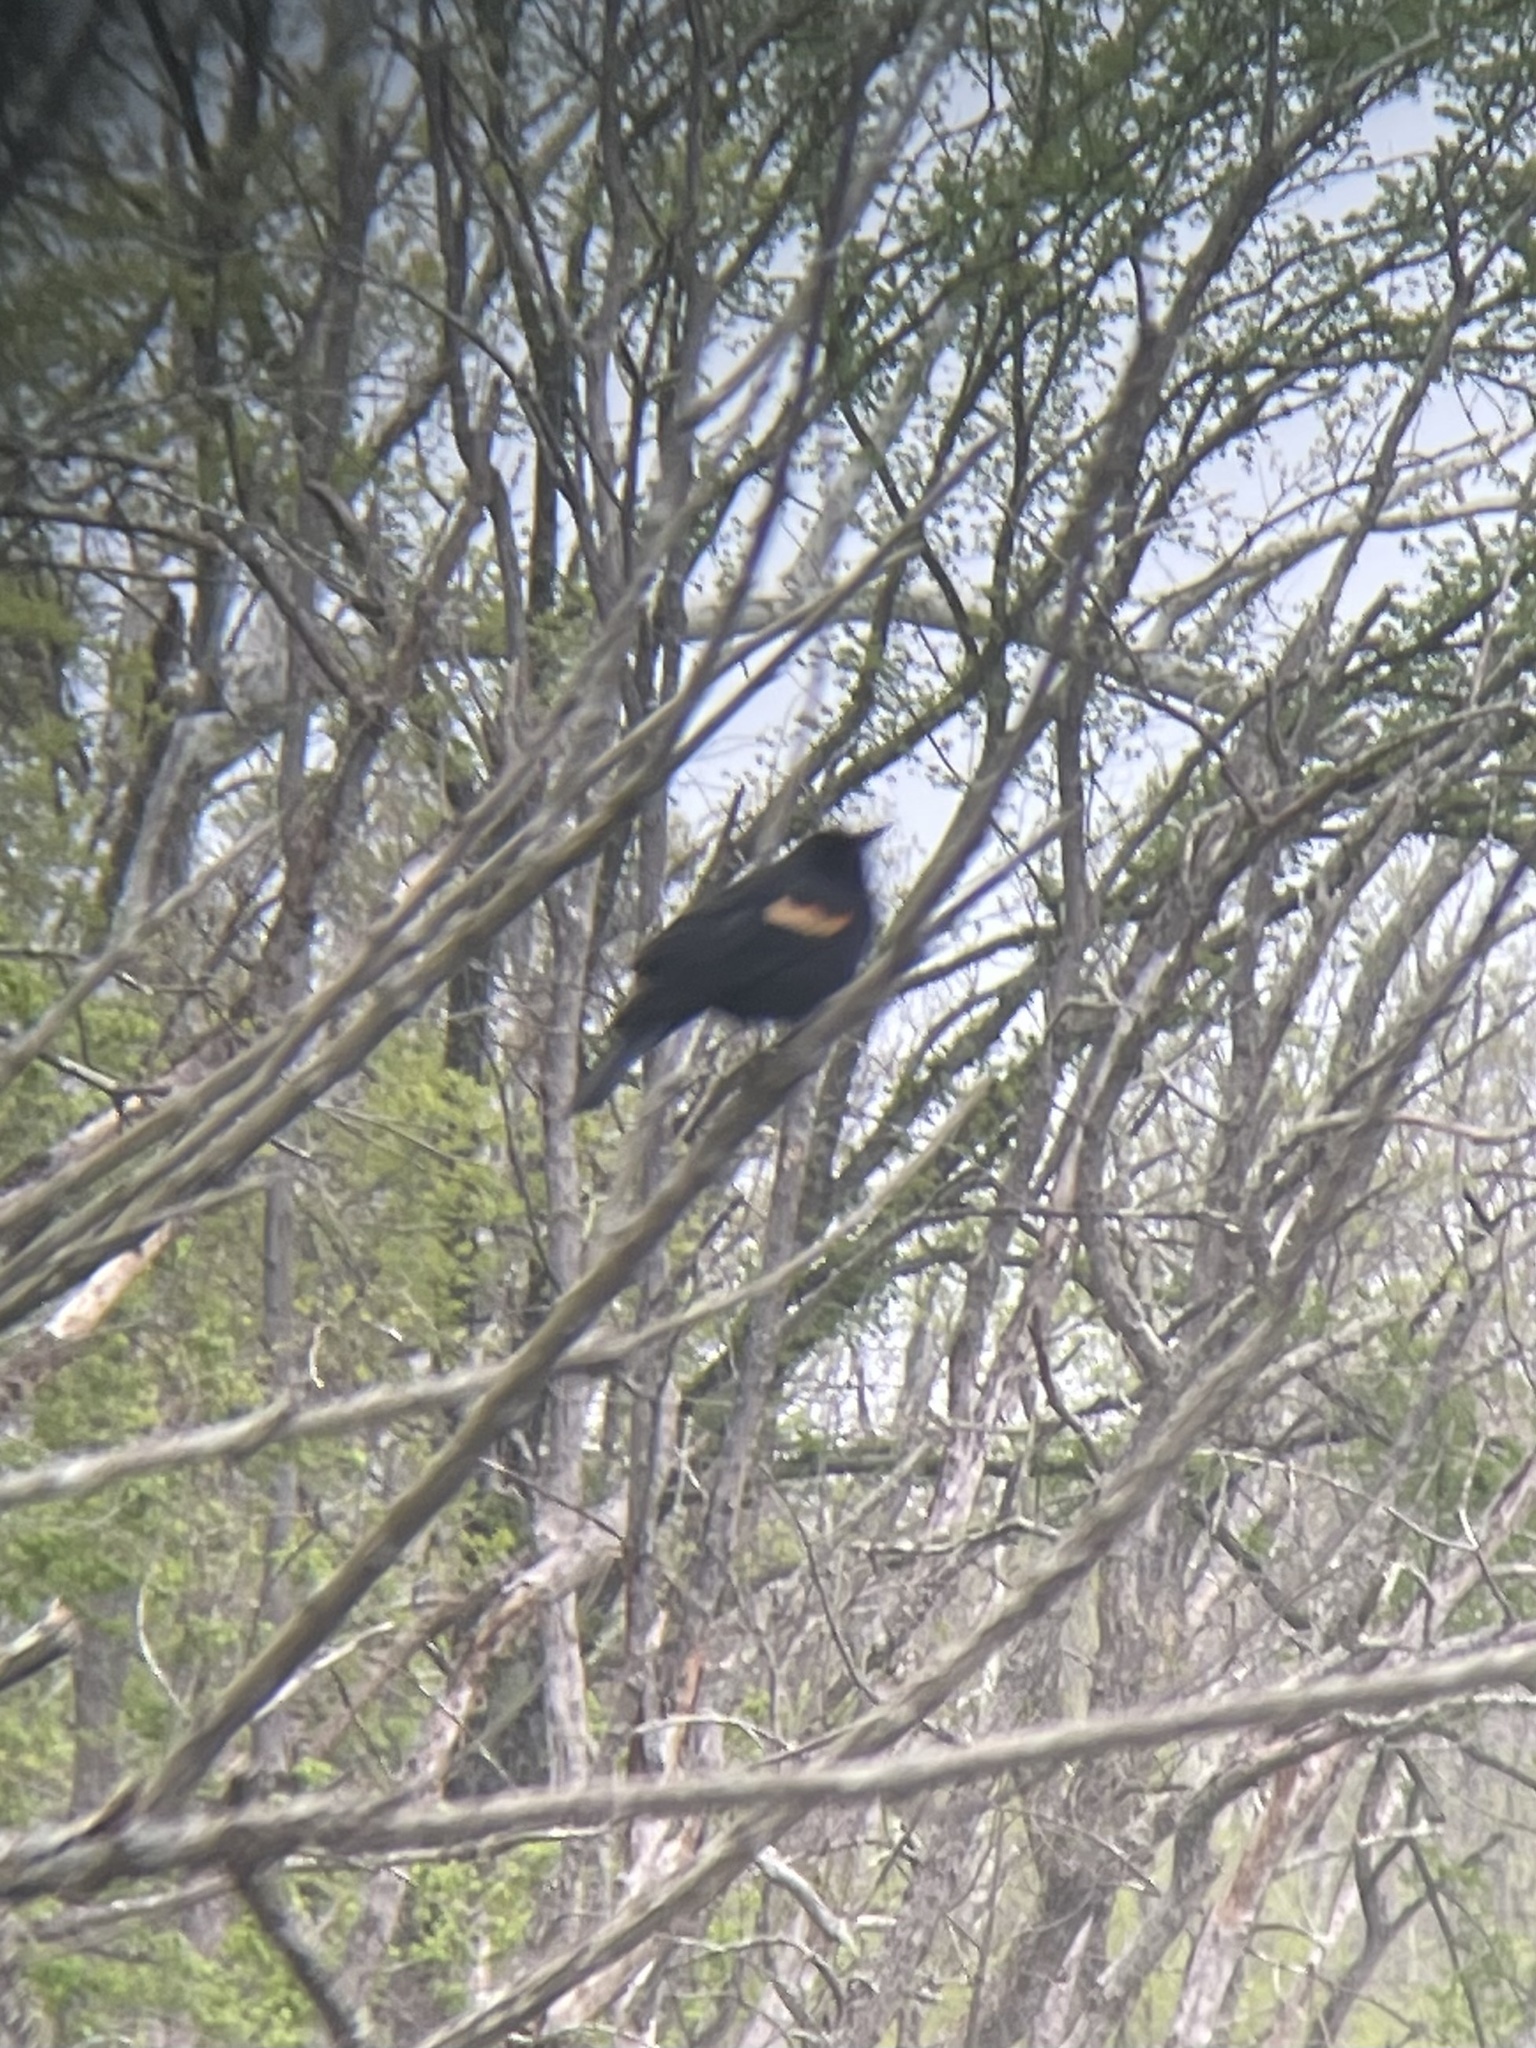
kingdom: Animalia
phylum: Chordata
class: Aves
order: Passeriformes
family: Icteridae
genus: Agelaius
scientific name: Agelaius phoeniceus
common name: Red-winged blackbird
